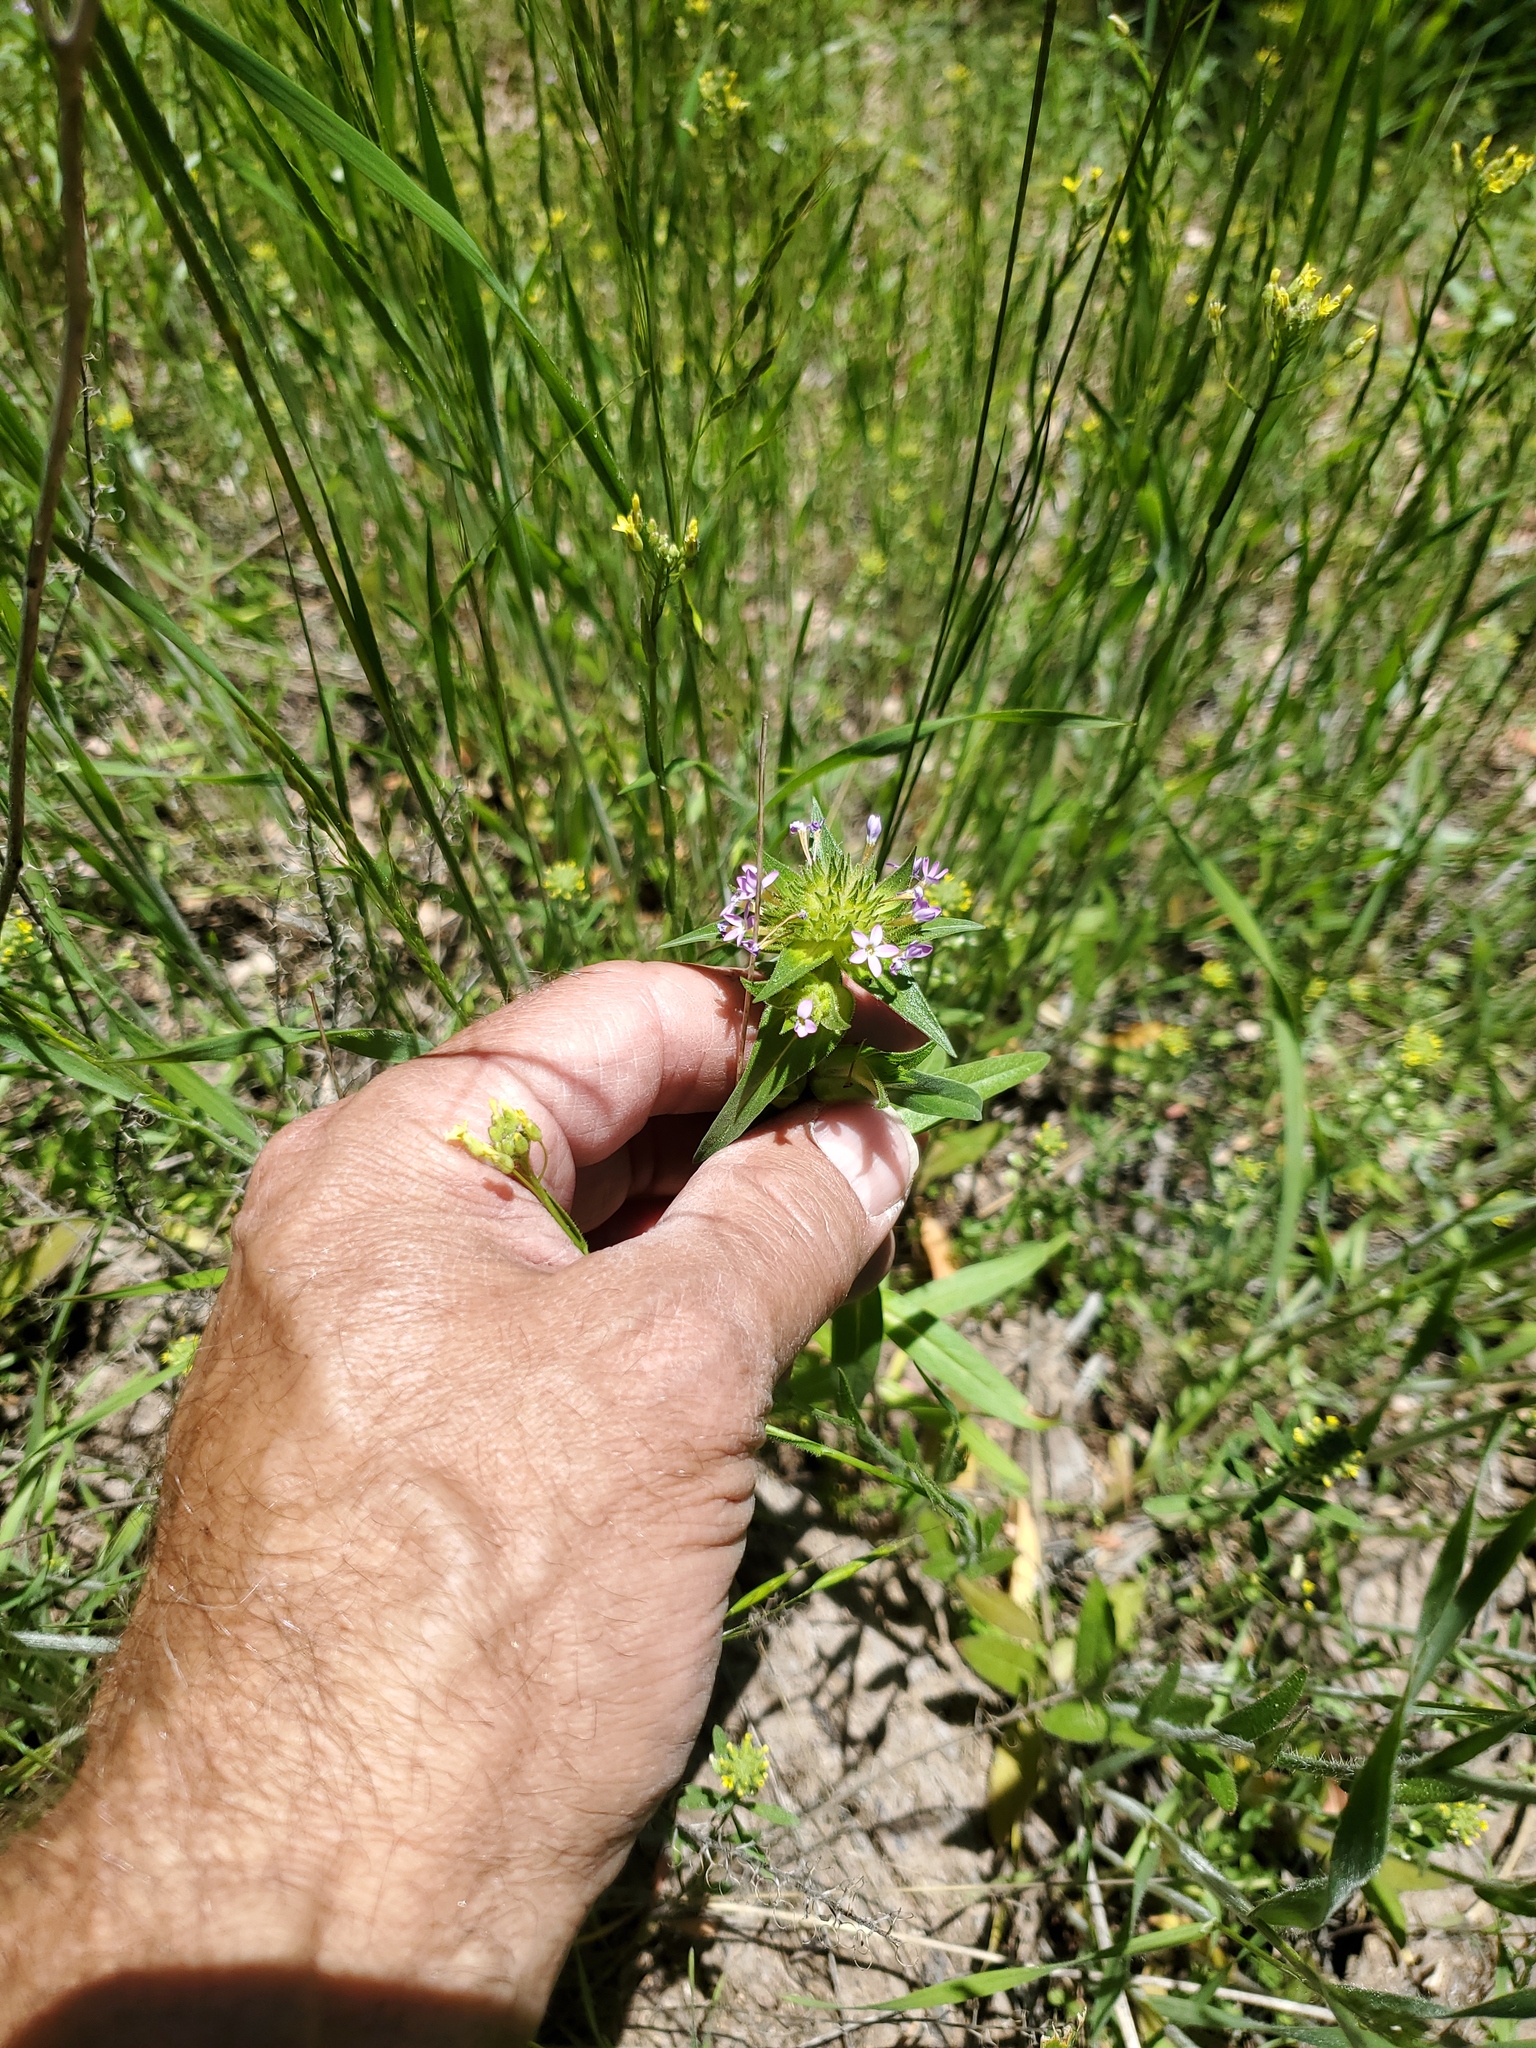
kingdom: Plantae
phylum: Tracheophyta
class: Magnoliopsida
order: Ericales
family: Polemoniaceae
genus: Collomia
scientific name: Collomia linearis
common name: Tiny trumpet
